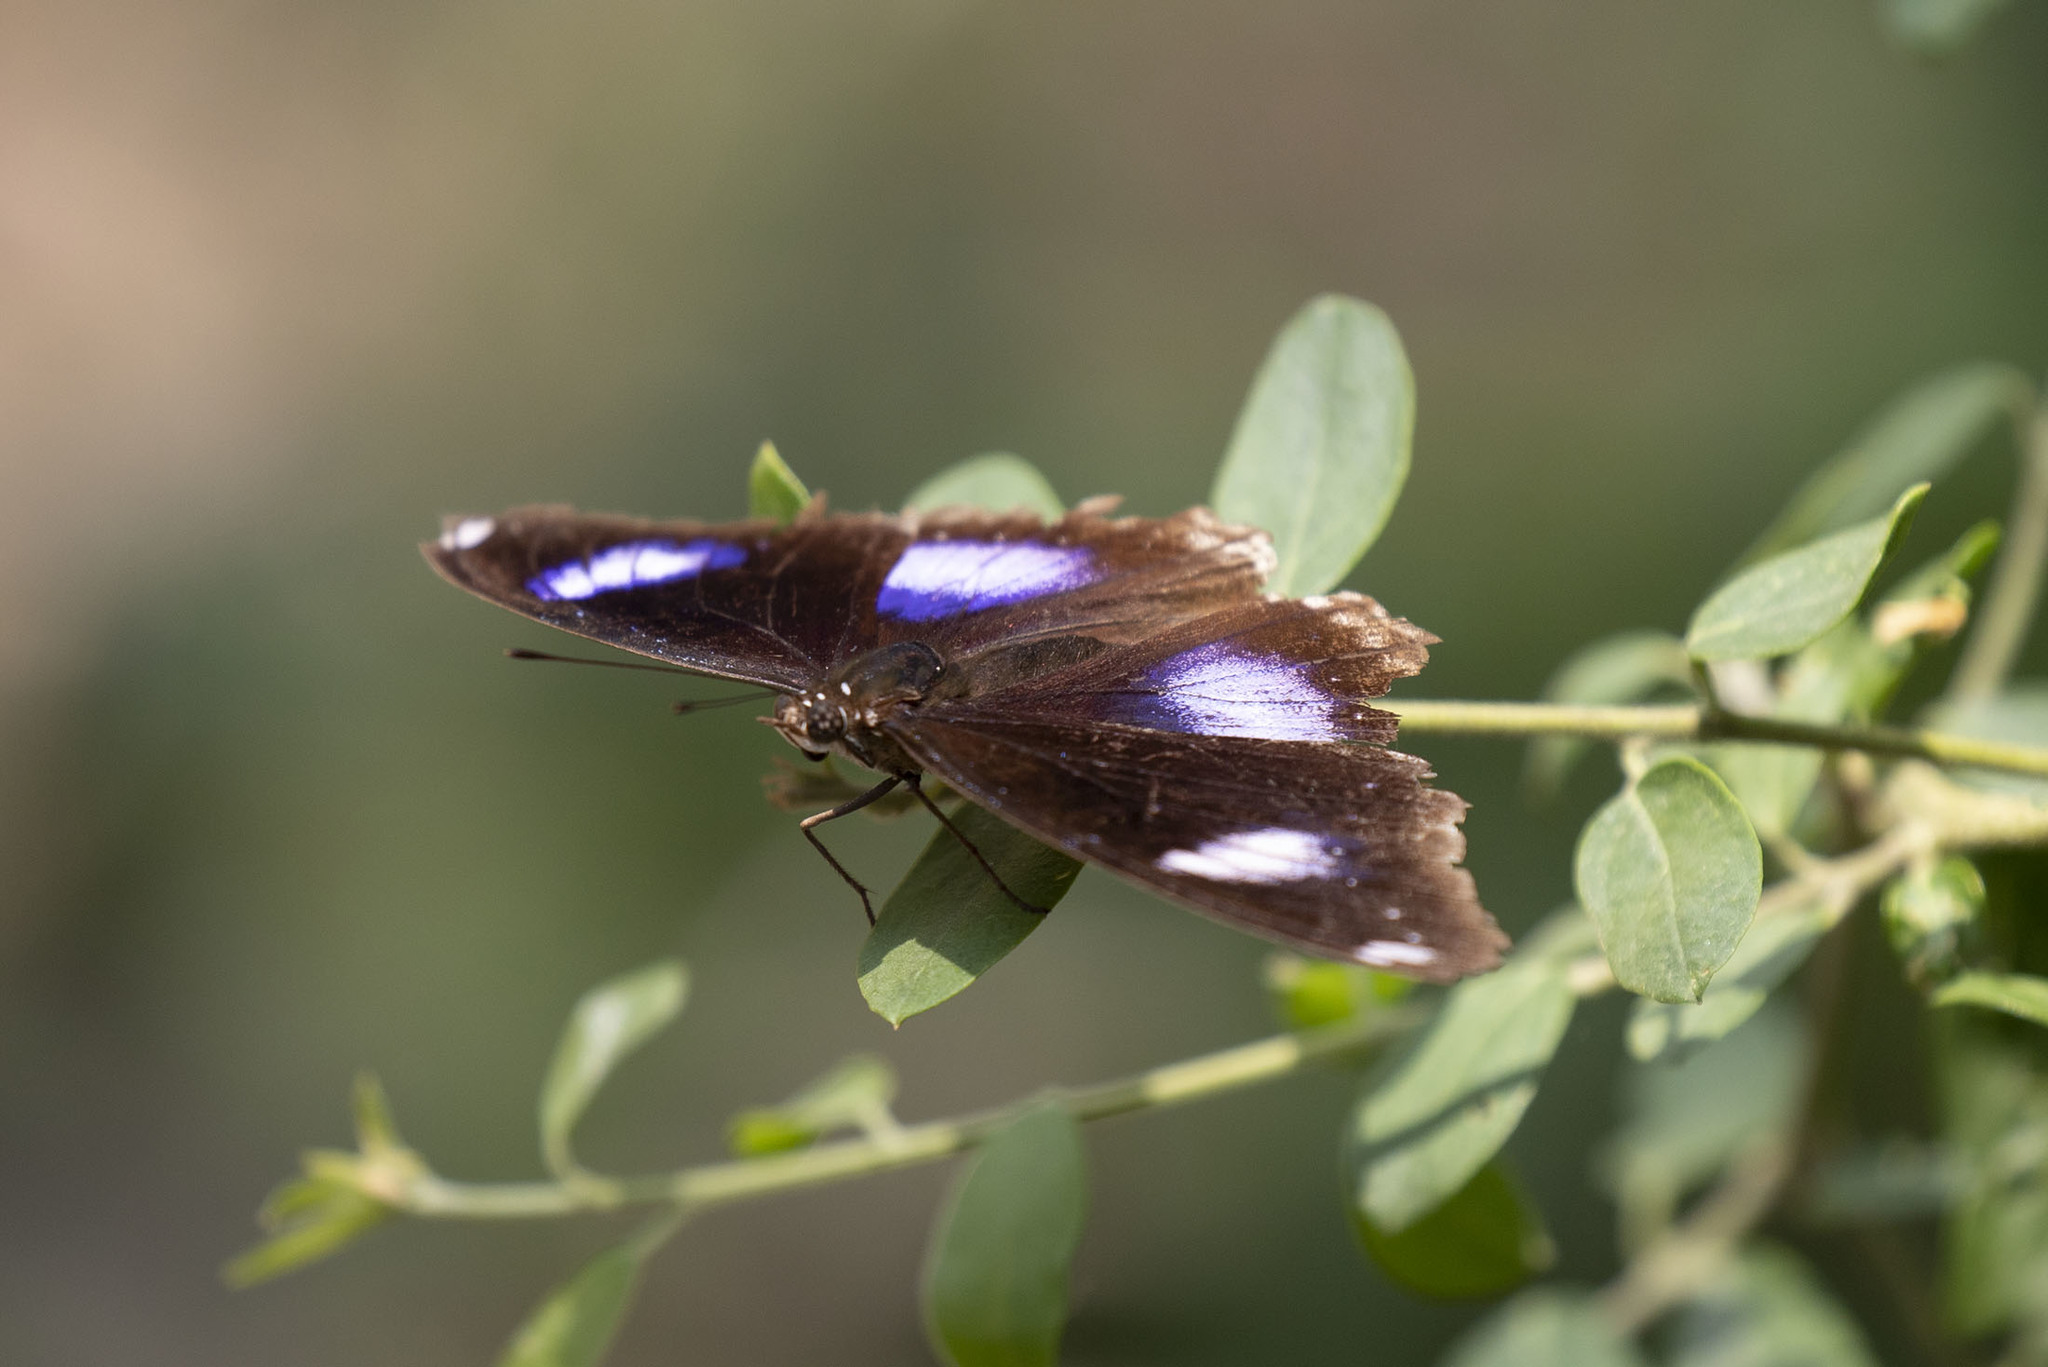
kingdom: Animalia
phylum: Arthropoda
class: Insecta
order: Lepidoptera
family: Nymphalidae
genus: Hypolimnas
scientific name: Hypolimnas bolina
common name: Great eggfly
